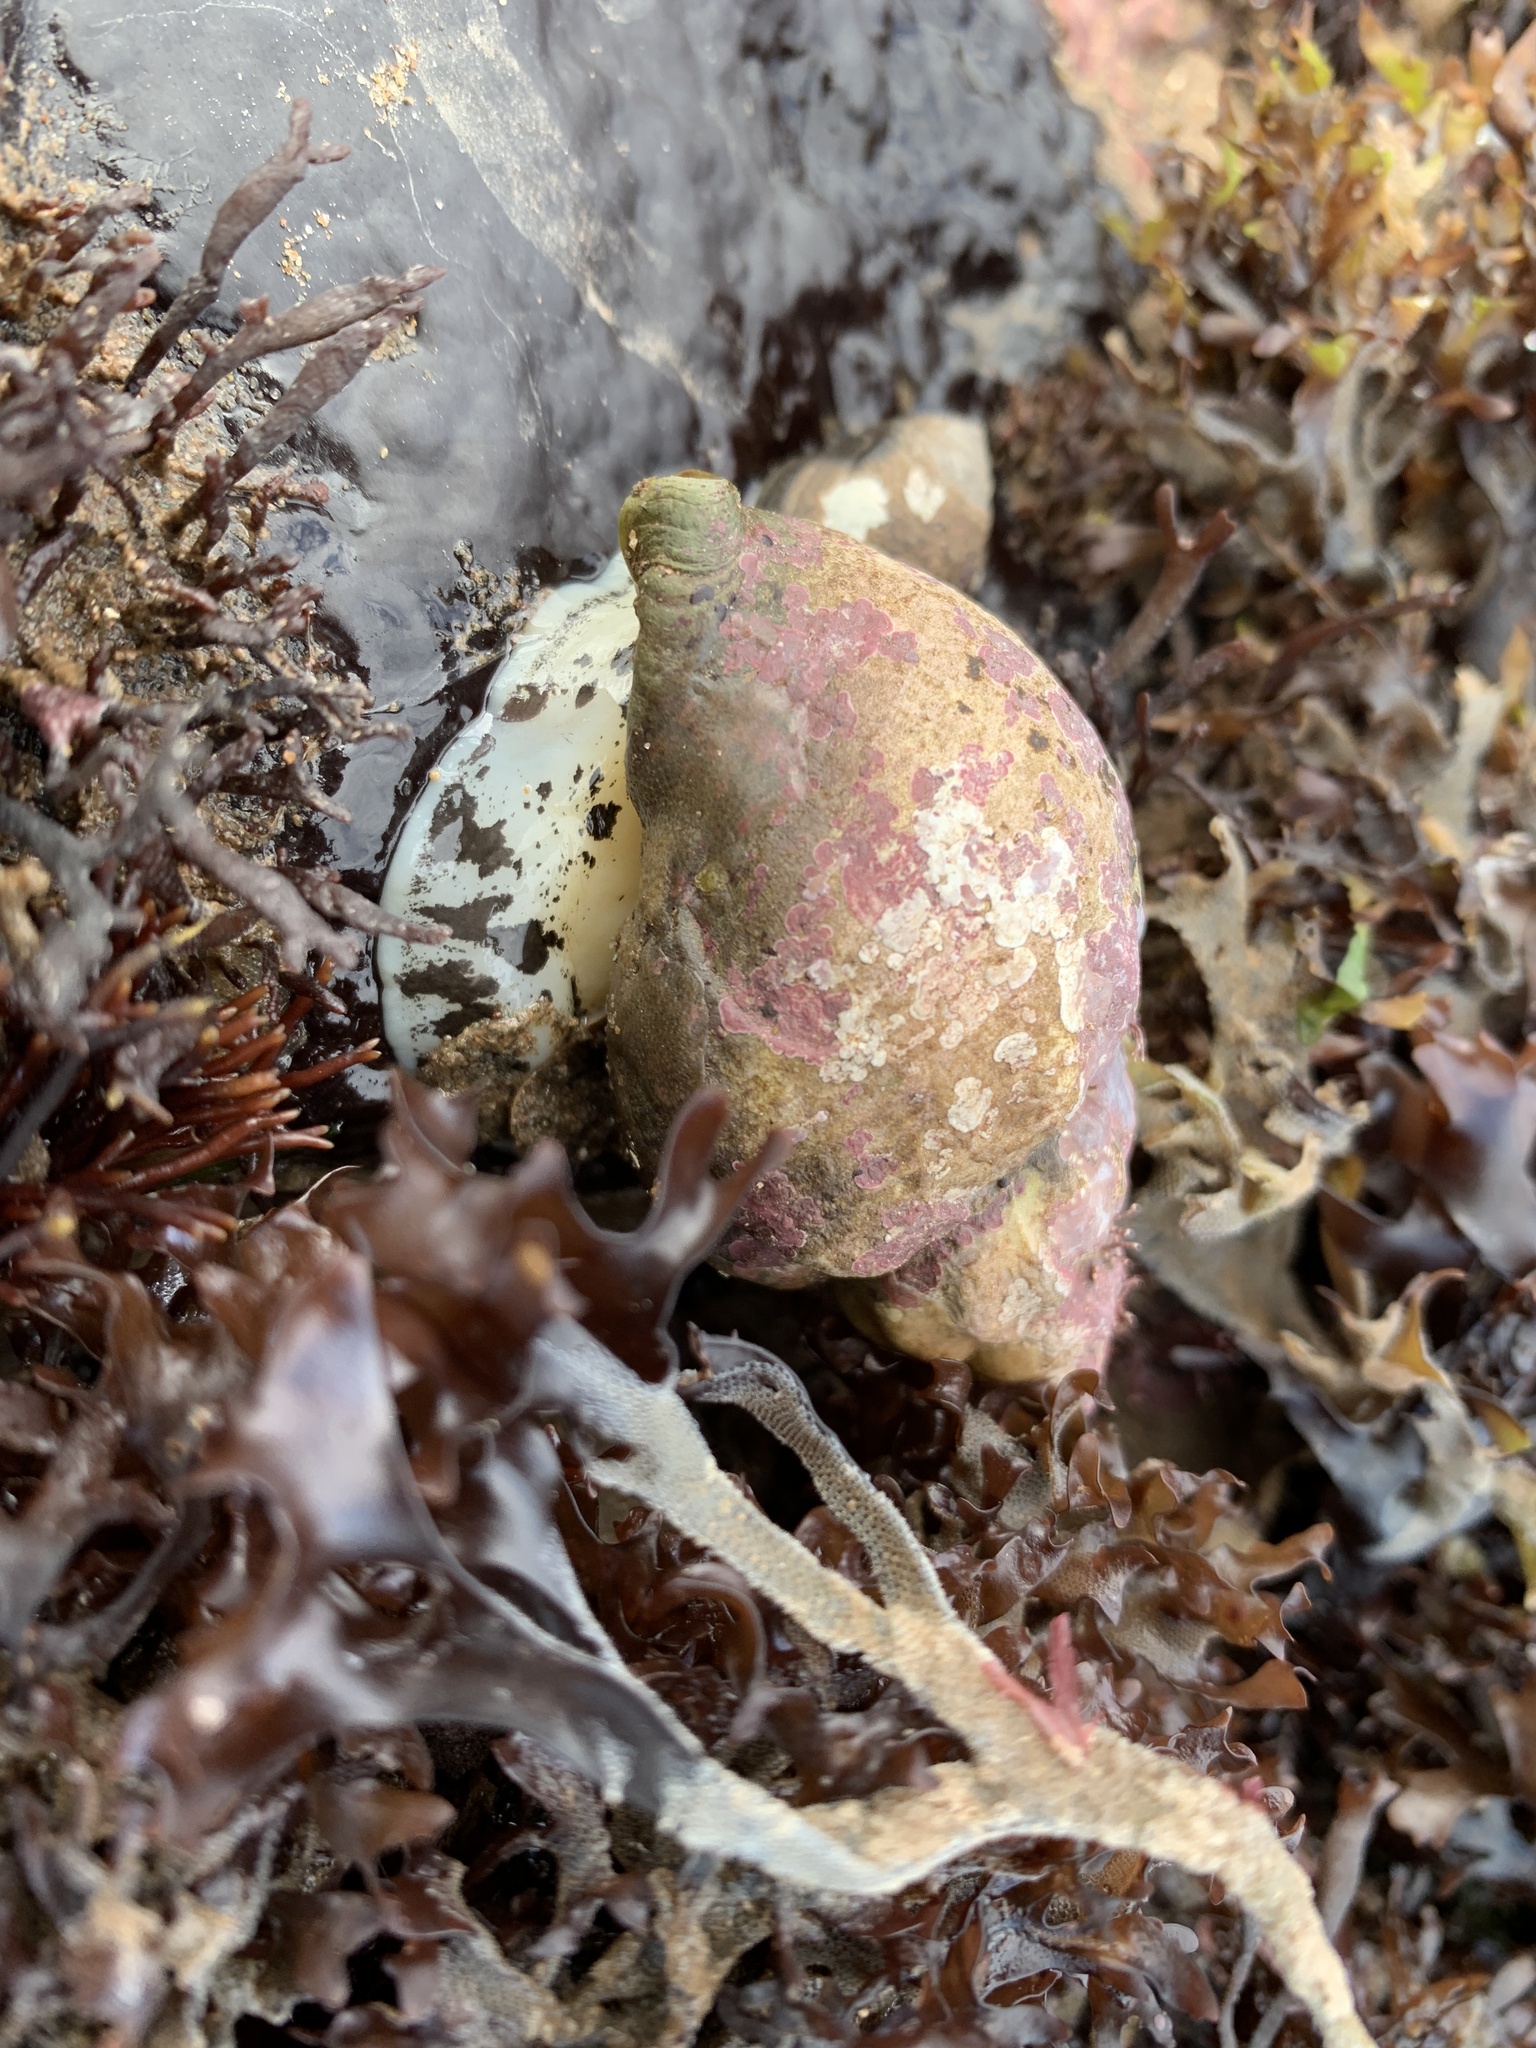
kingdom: Animalia
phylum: Mollusca
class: Gastropoda
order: Neogastropoda
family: Buccinidae
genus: Buccinum
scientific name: Buccinum undatum
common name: Common whelk
